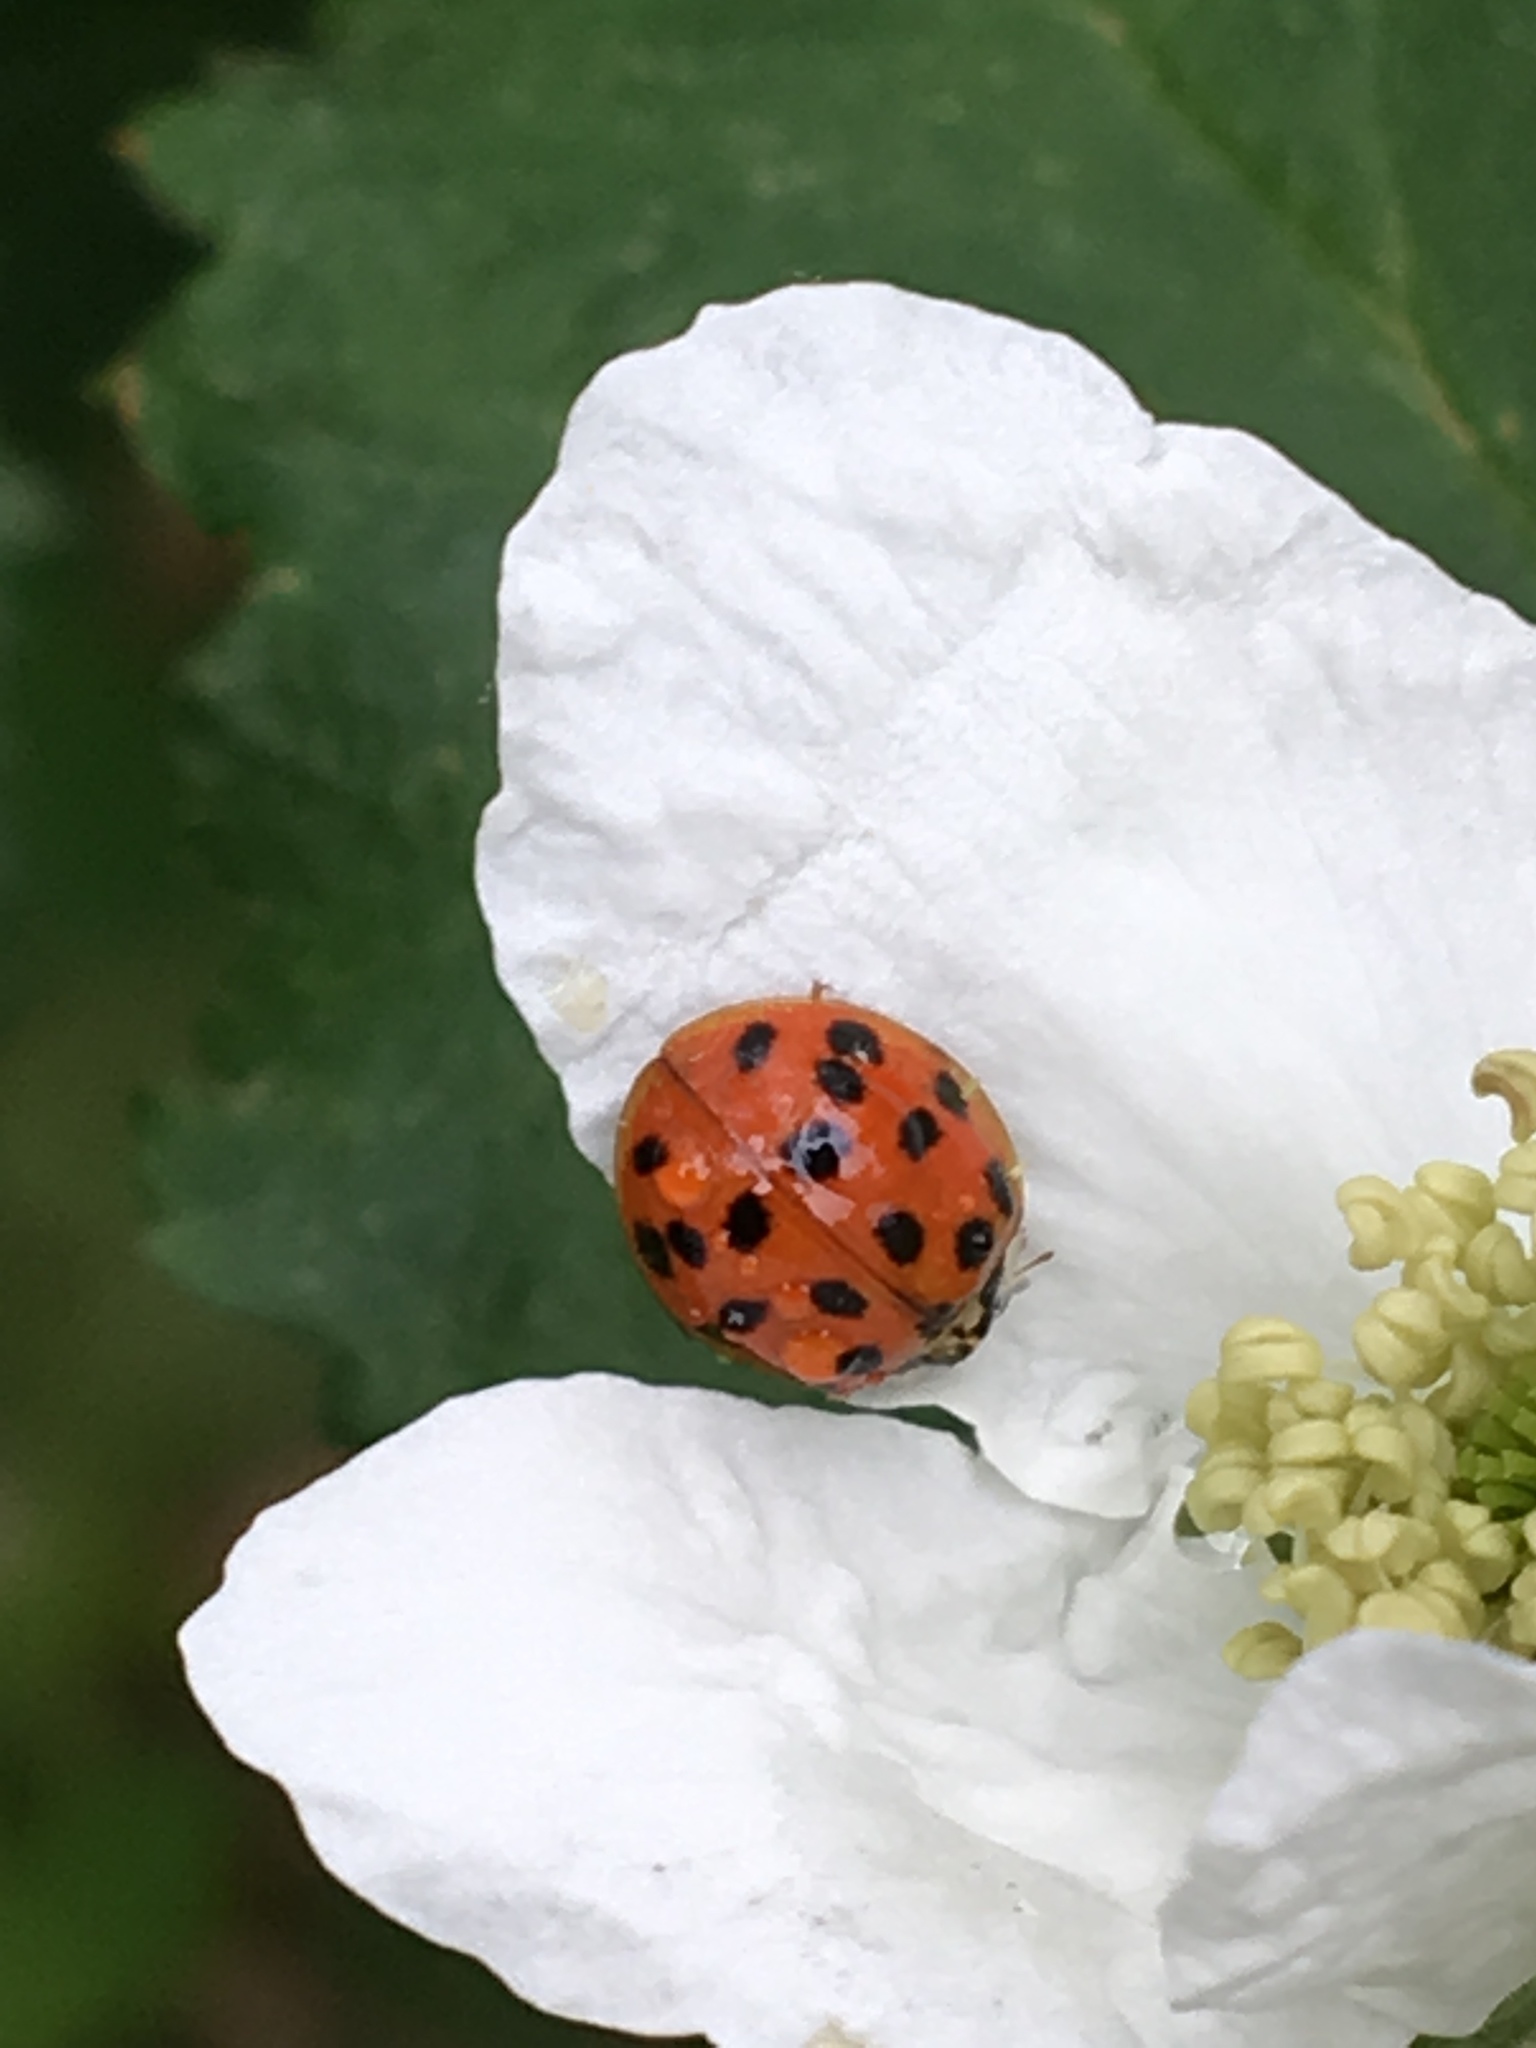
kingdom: Animalia
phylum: Arthropoda
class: Insecta
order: Coleoptera
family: Coccinellidae
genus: Harmonia
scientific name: Harmonia axyridis
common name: Harlequin ladybird
